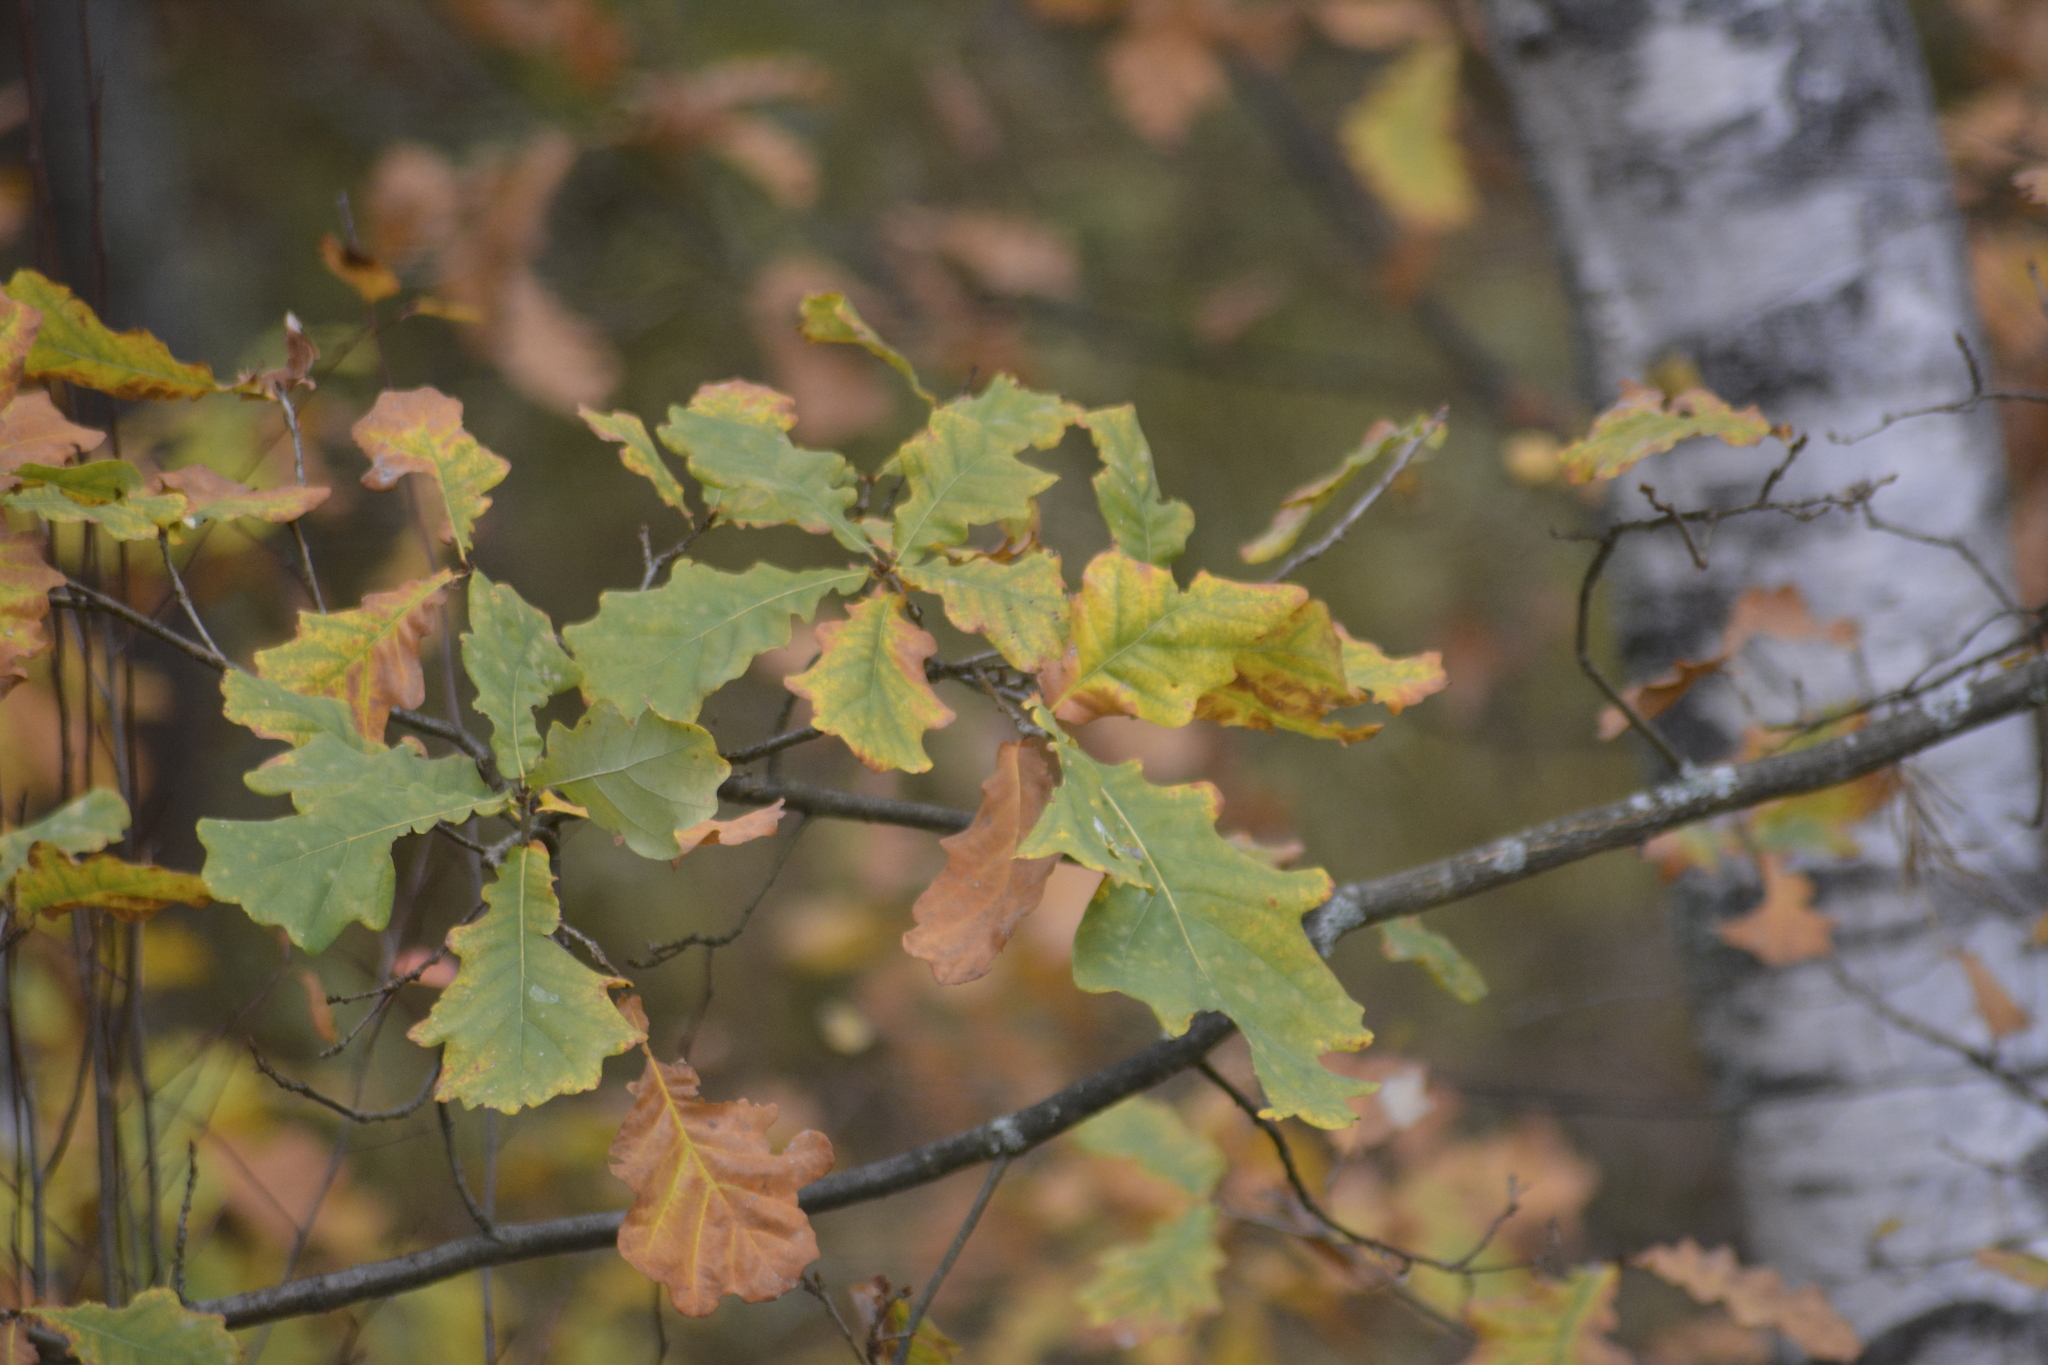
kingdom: Plantae
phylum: Tracheophyta
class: Magnoliopsida
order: Fagales
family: Fagaceae
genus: Quercus
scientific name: Quercus robur
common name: Pedunculate oak
